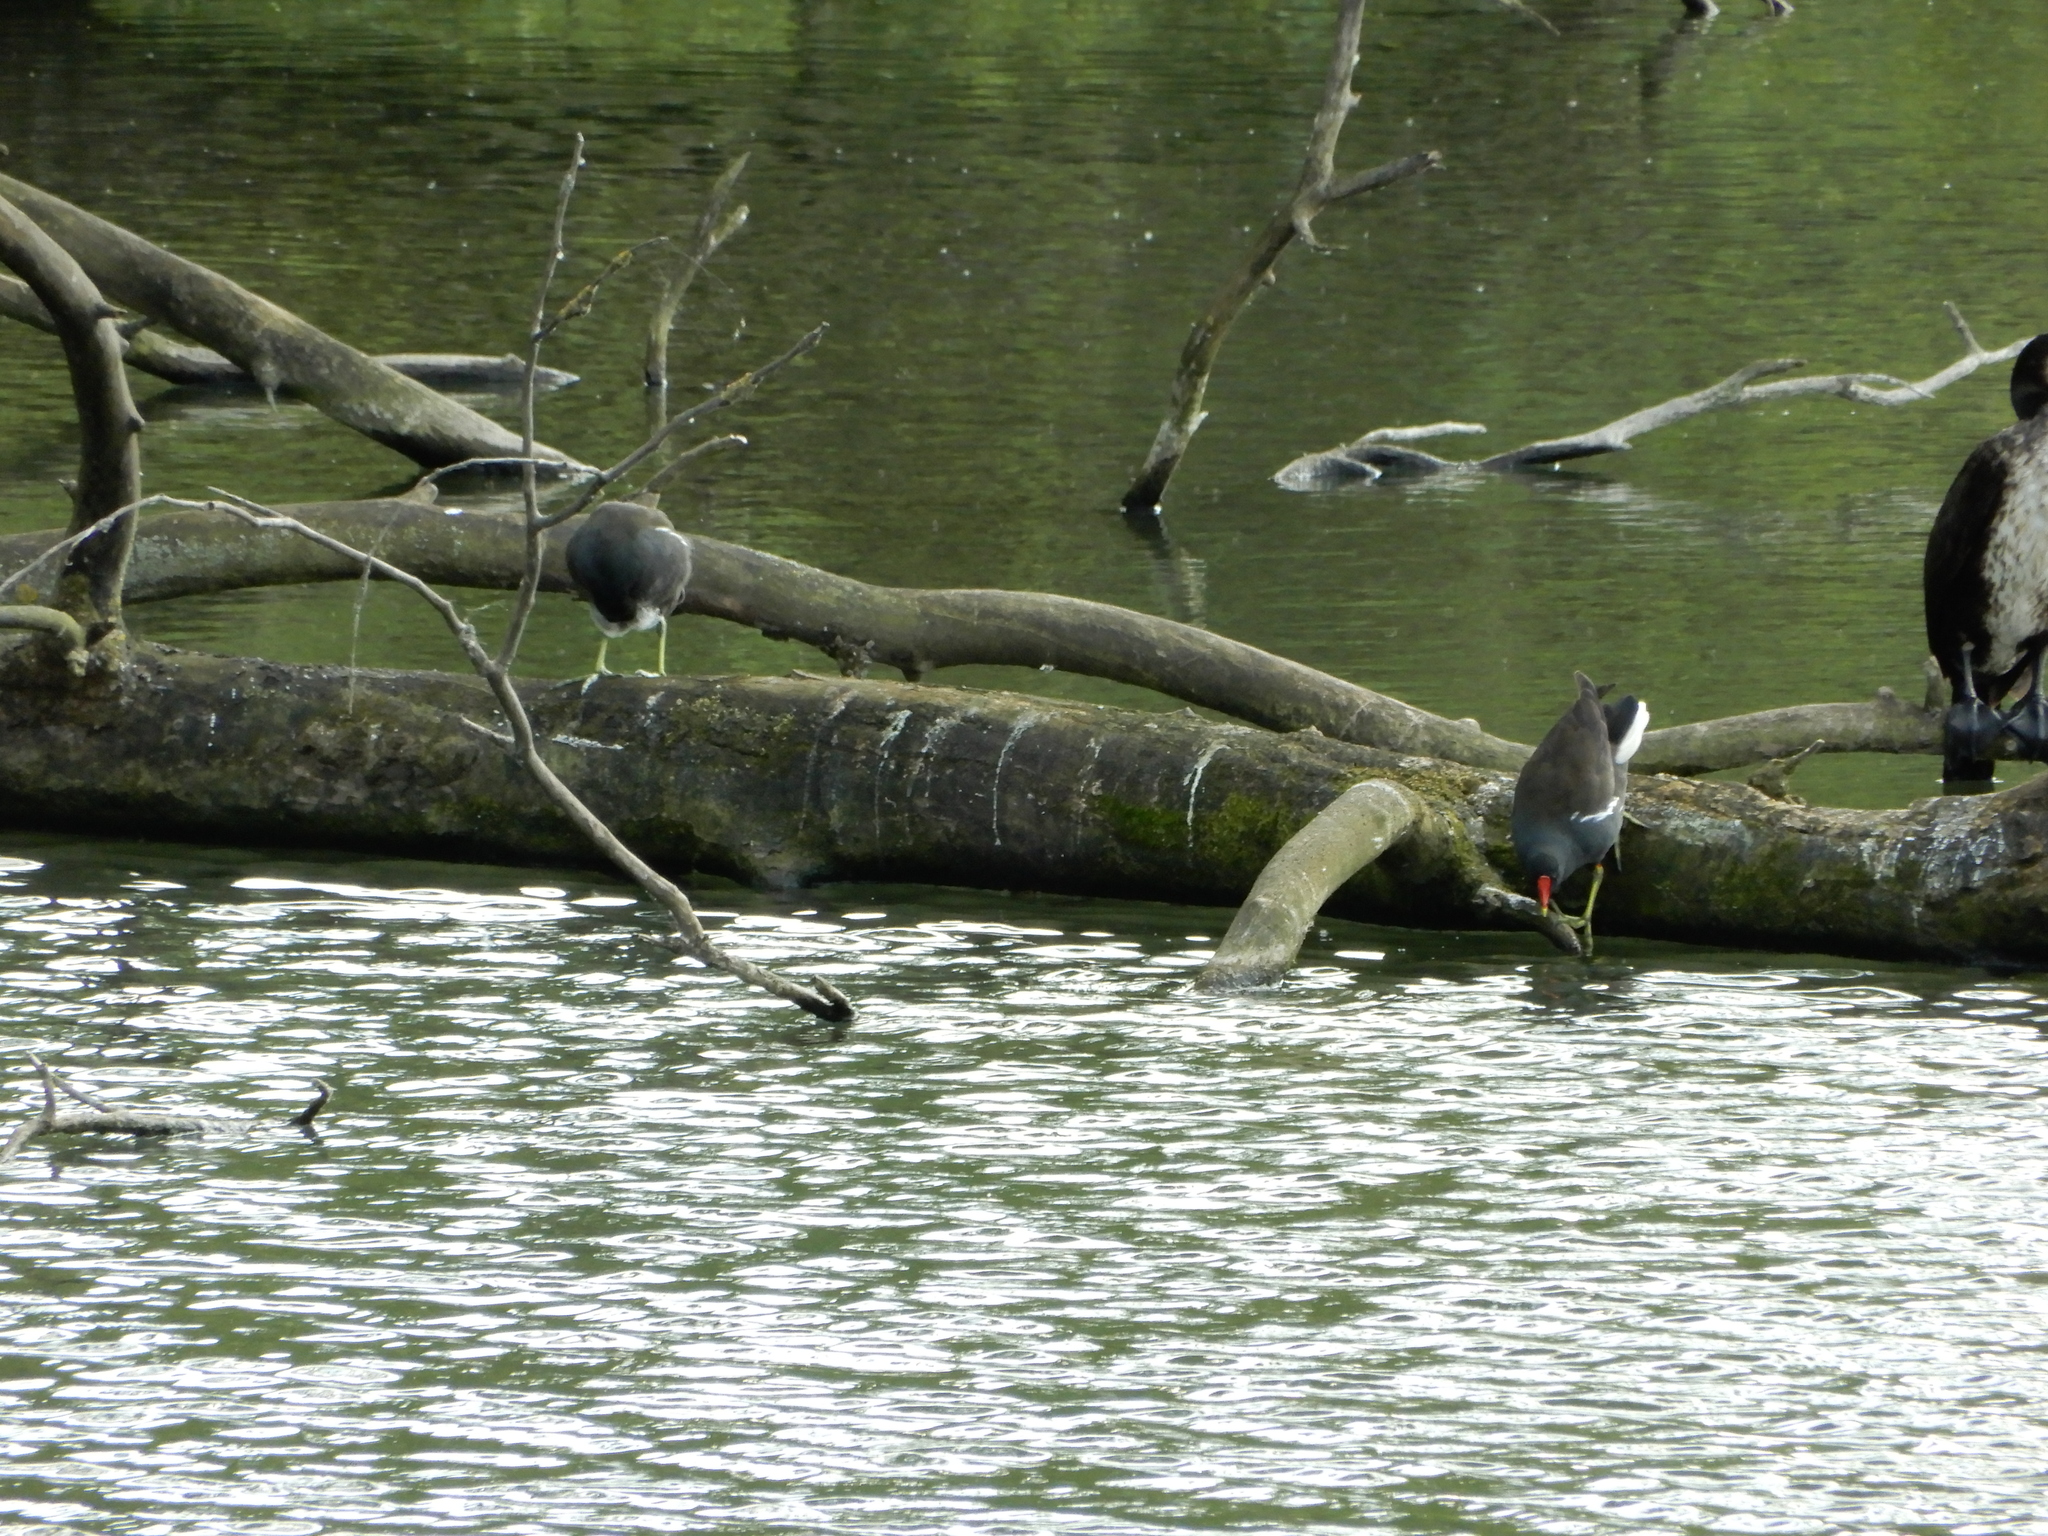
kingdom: Animalia
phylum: Chordata
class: Aves
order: Gruiformes
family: Rallidae
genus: Gallinula
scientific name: Gallinula chloropus
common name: Common moorhen
